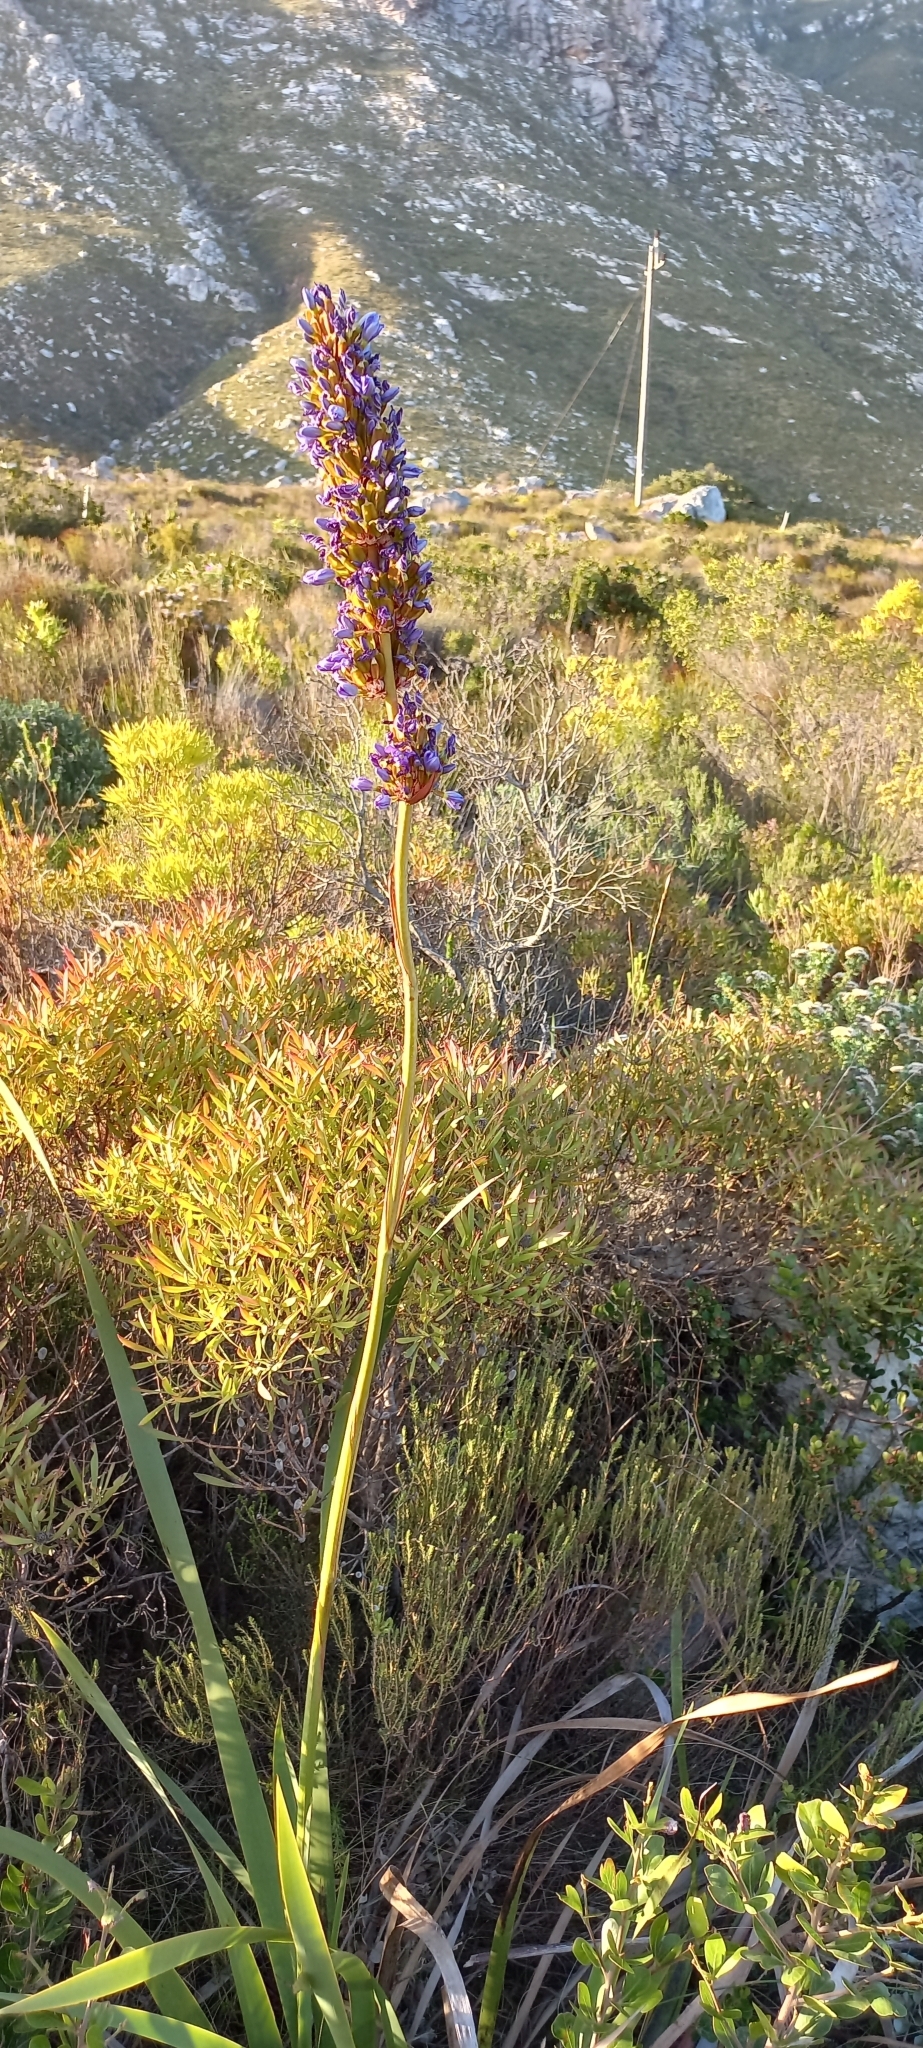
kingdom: Plantae
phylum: Tracheophyta
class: Liliopsida
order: Asparagales
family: Iridaceae
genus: Aristea
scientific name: Aristea capitata
